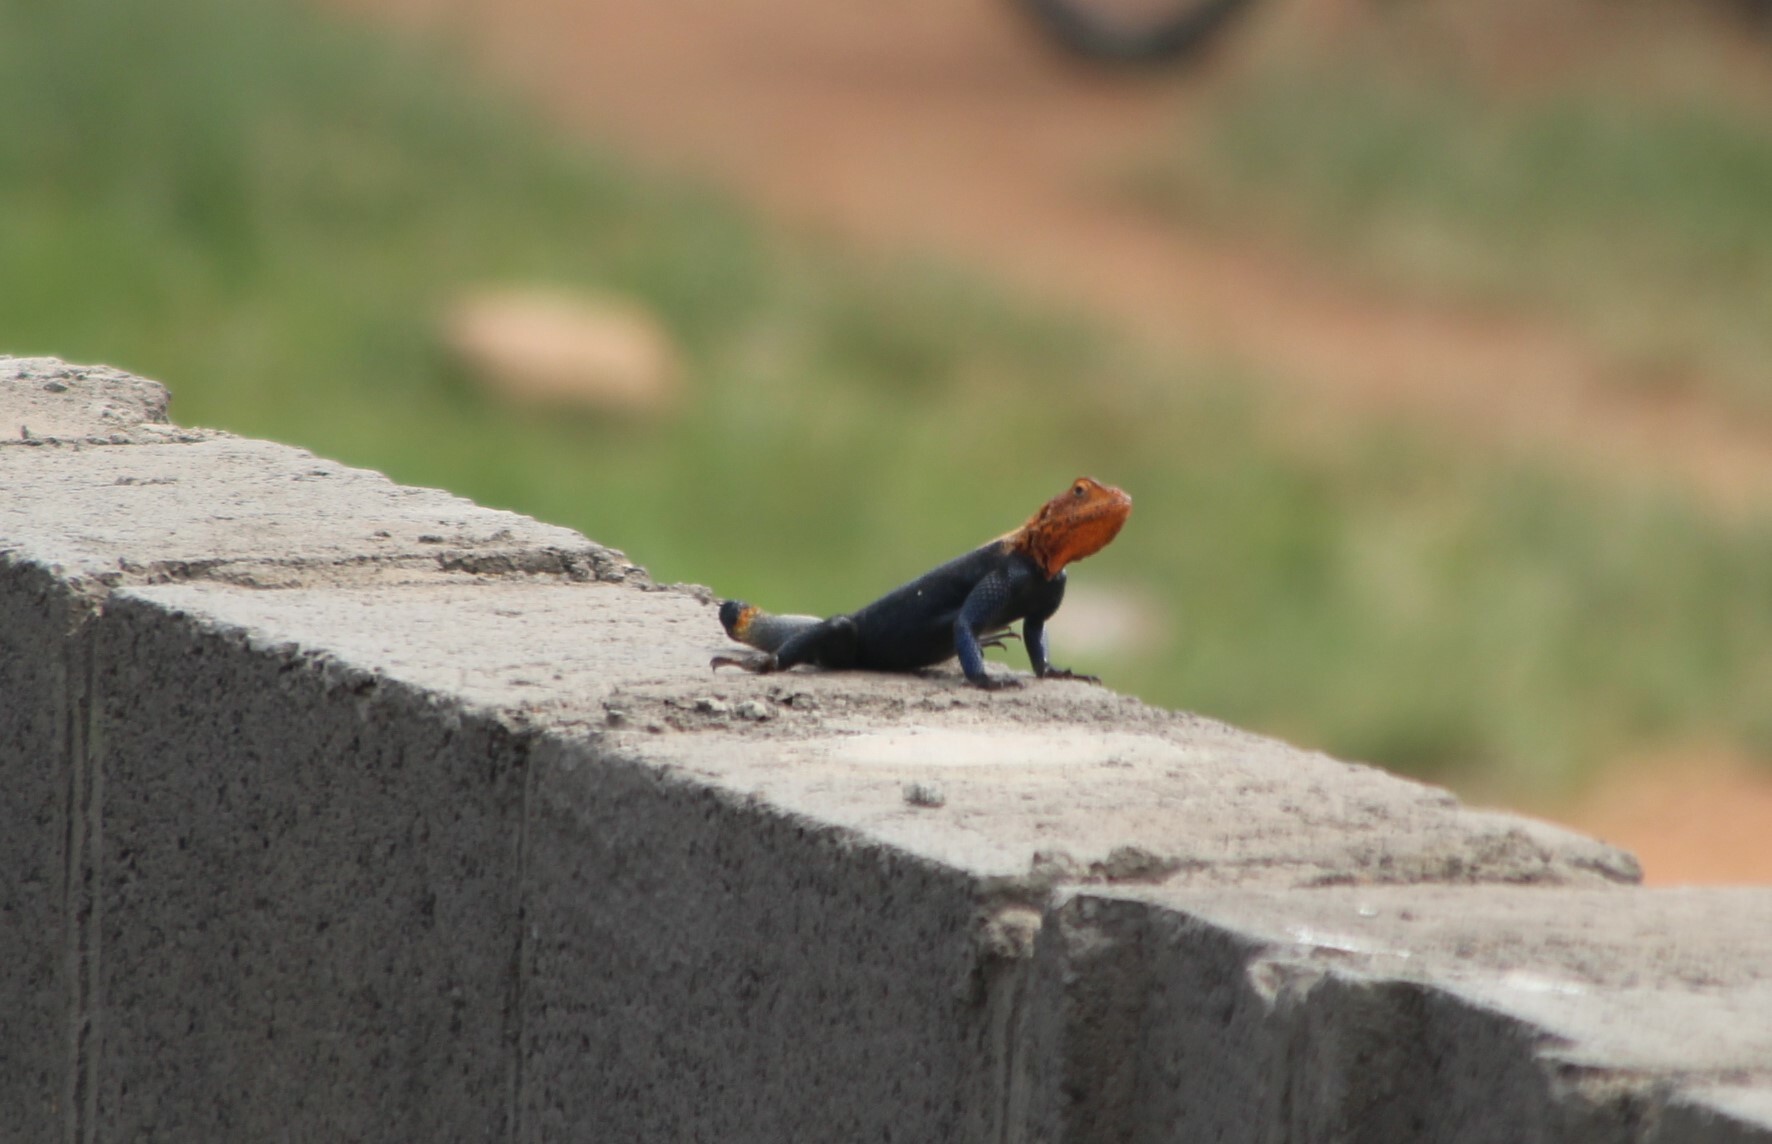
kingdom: Animalia
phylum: Chordata
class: Squamata
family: Agamidae
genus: Agama
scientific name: Agama finchi
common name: Finch’s agama
